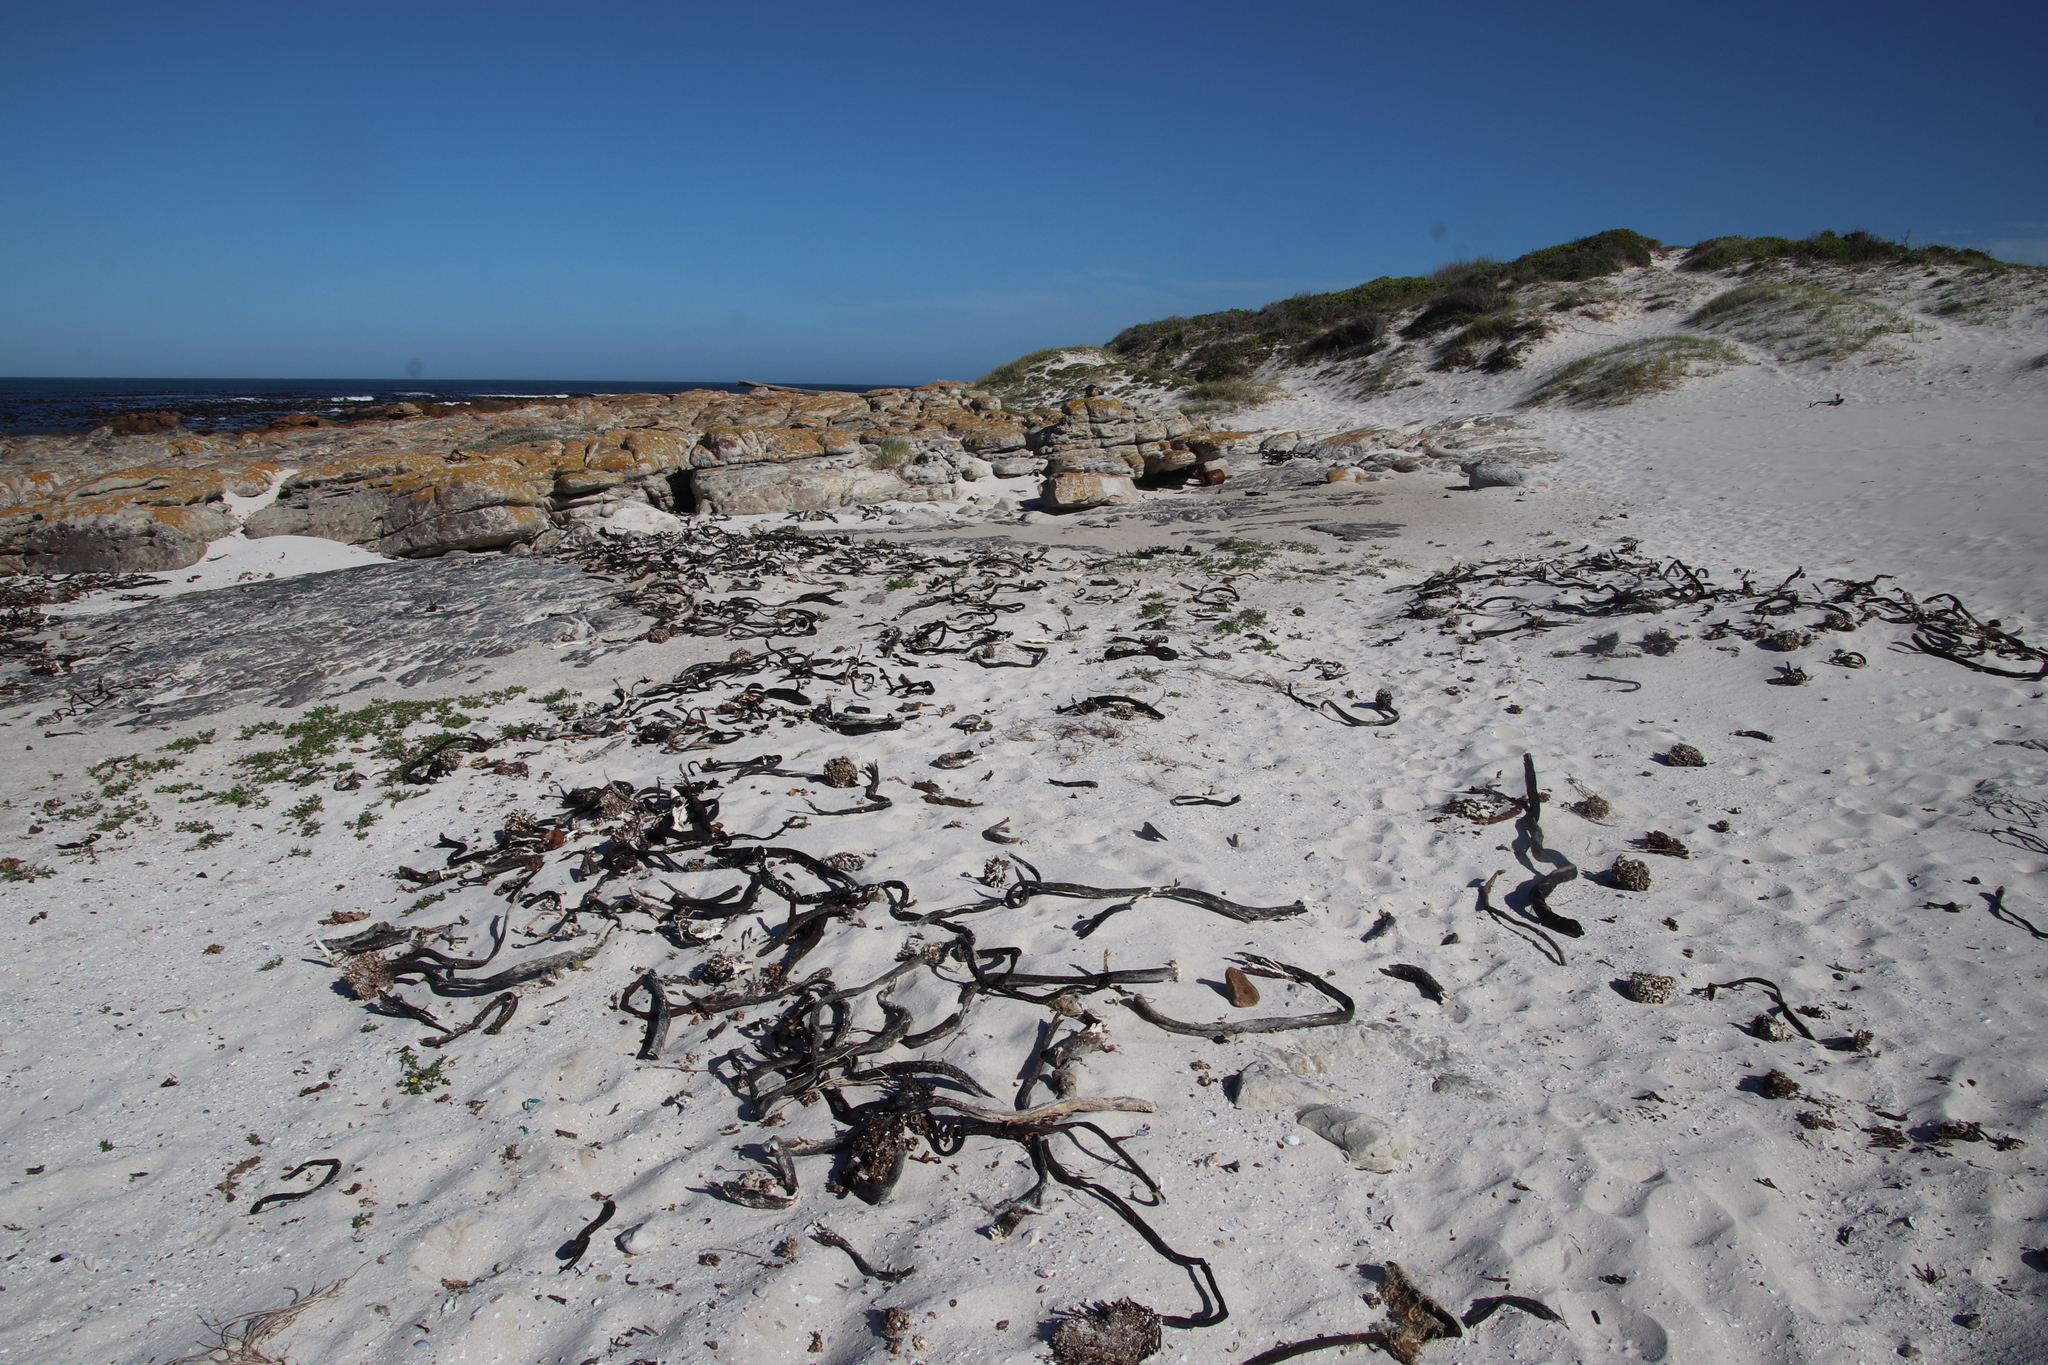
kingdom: Plantae
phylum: Tracheophyta
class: Magnoliopsida
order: Asterales
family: Asteraceae
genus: Senecio
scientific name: Senecio maritimus
